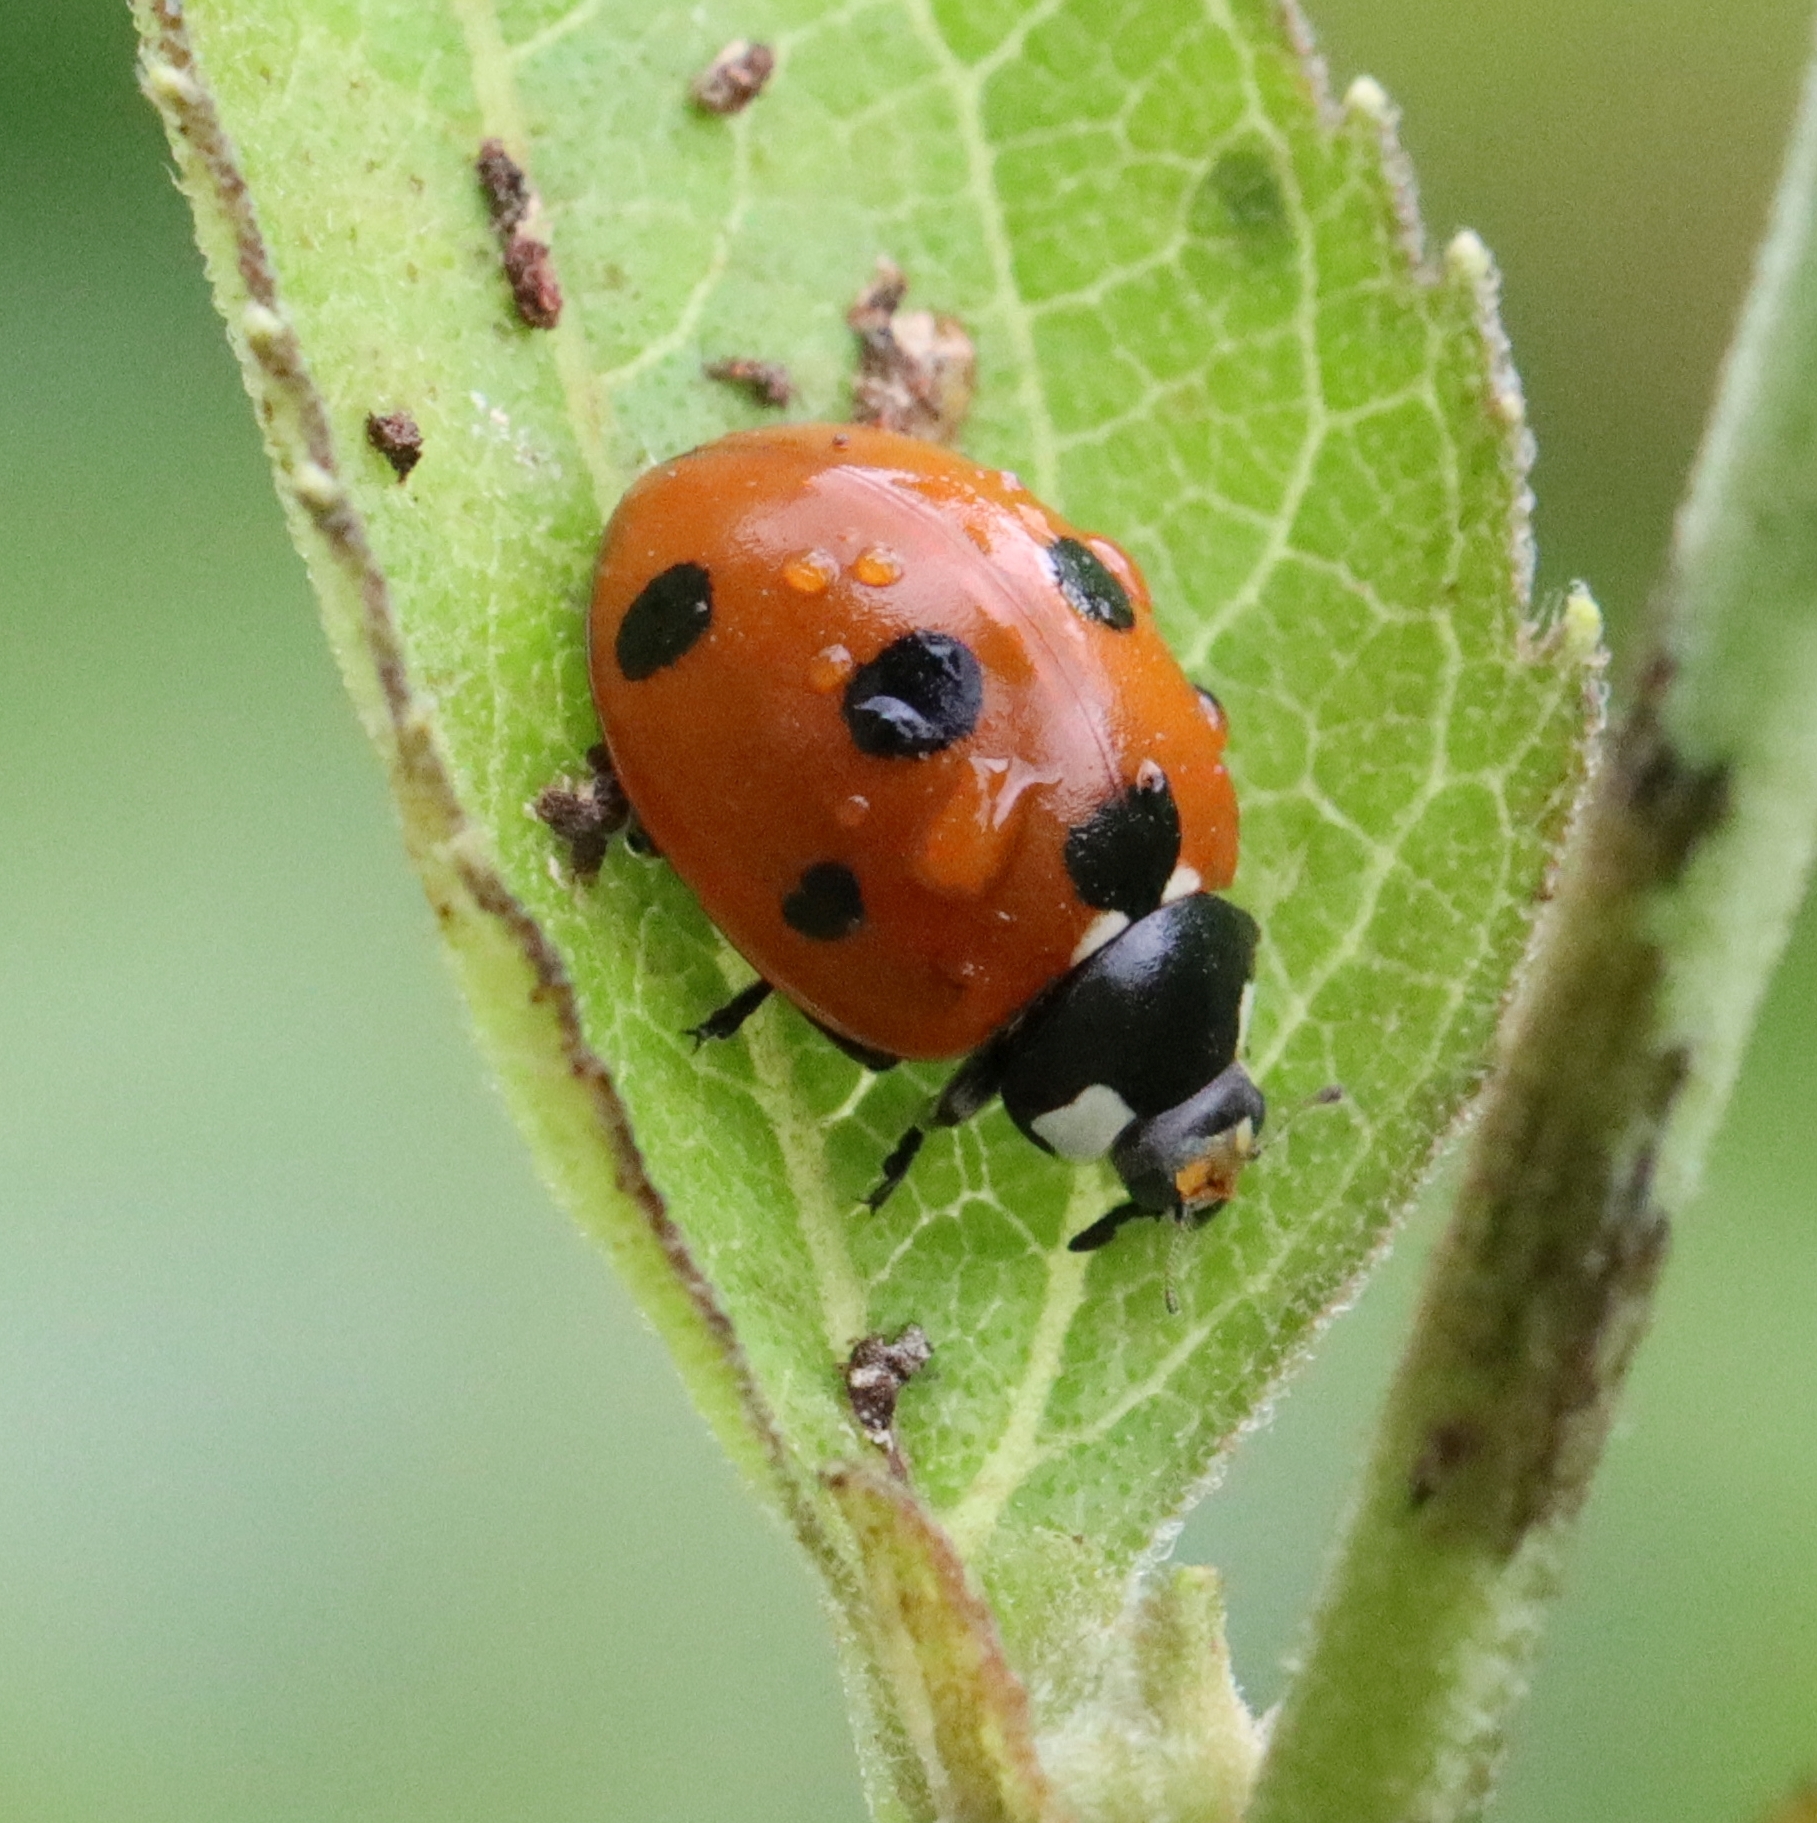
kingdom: Animalia
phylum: Arthropoda
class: Insecta
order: Coleoptera
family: Coccinellidae
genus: Coccinella
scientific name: Coccinella septempunctata
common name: Sevenspotted lady beetle
